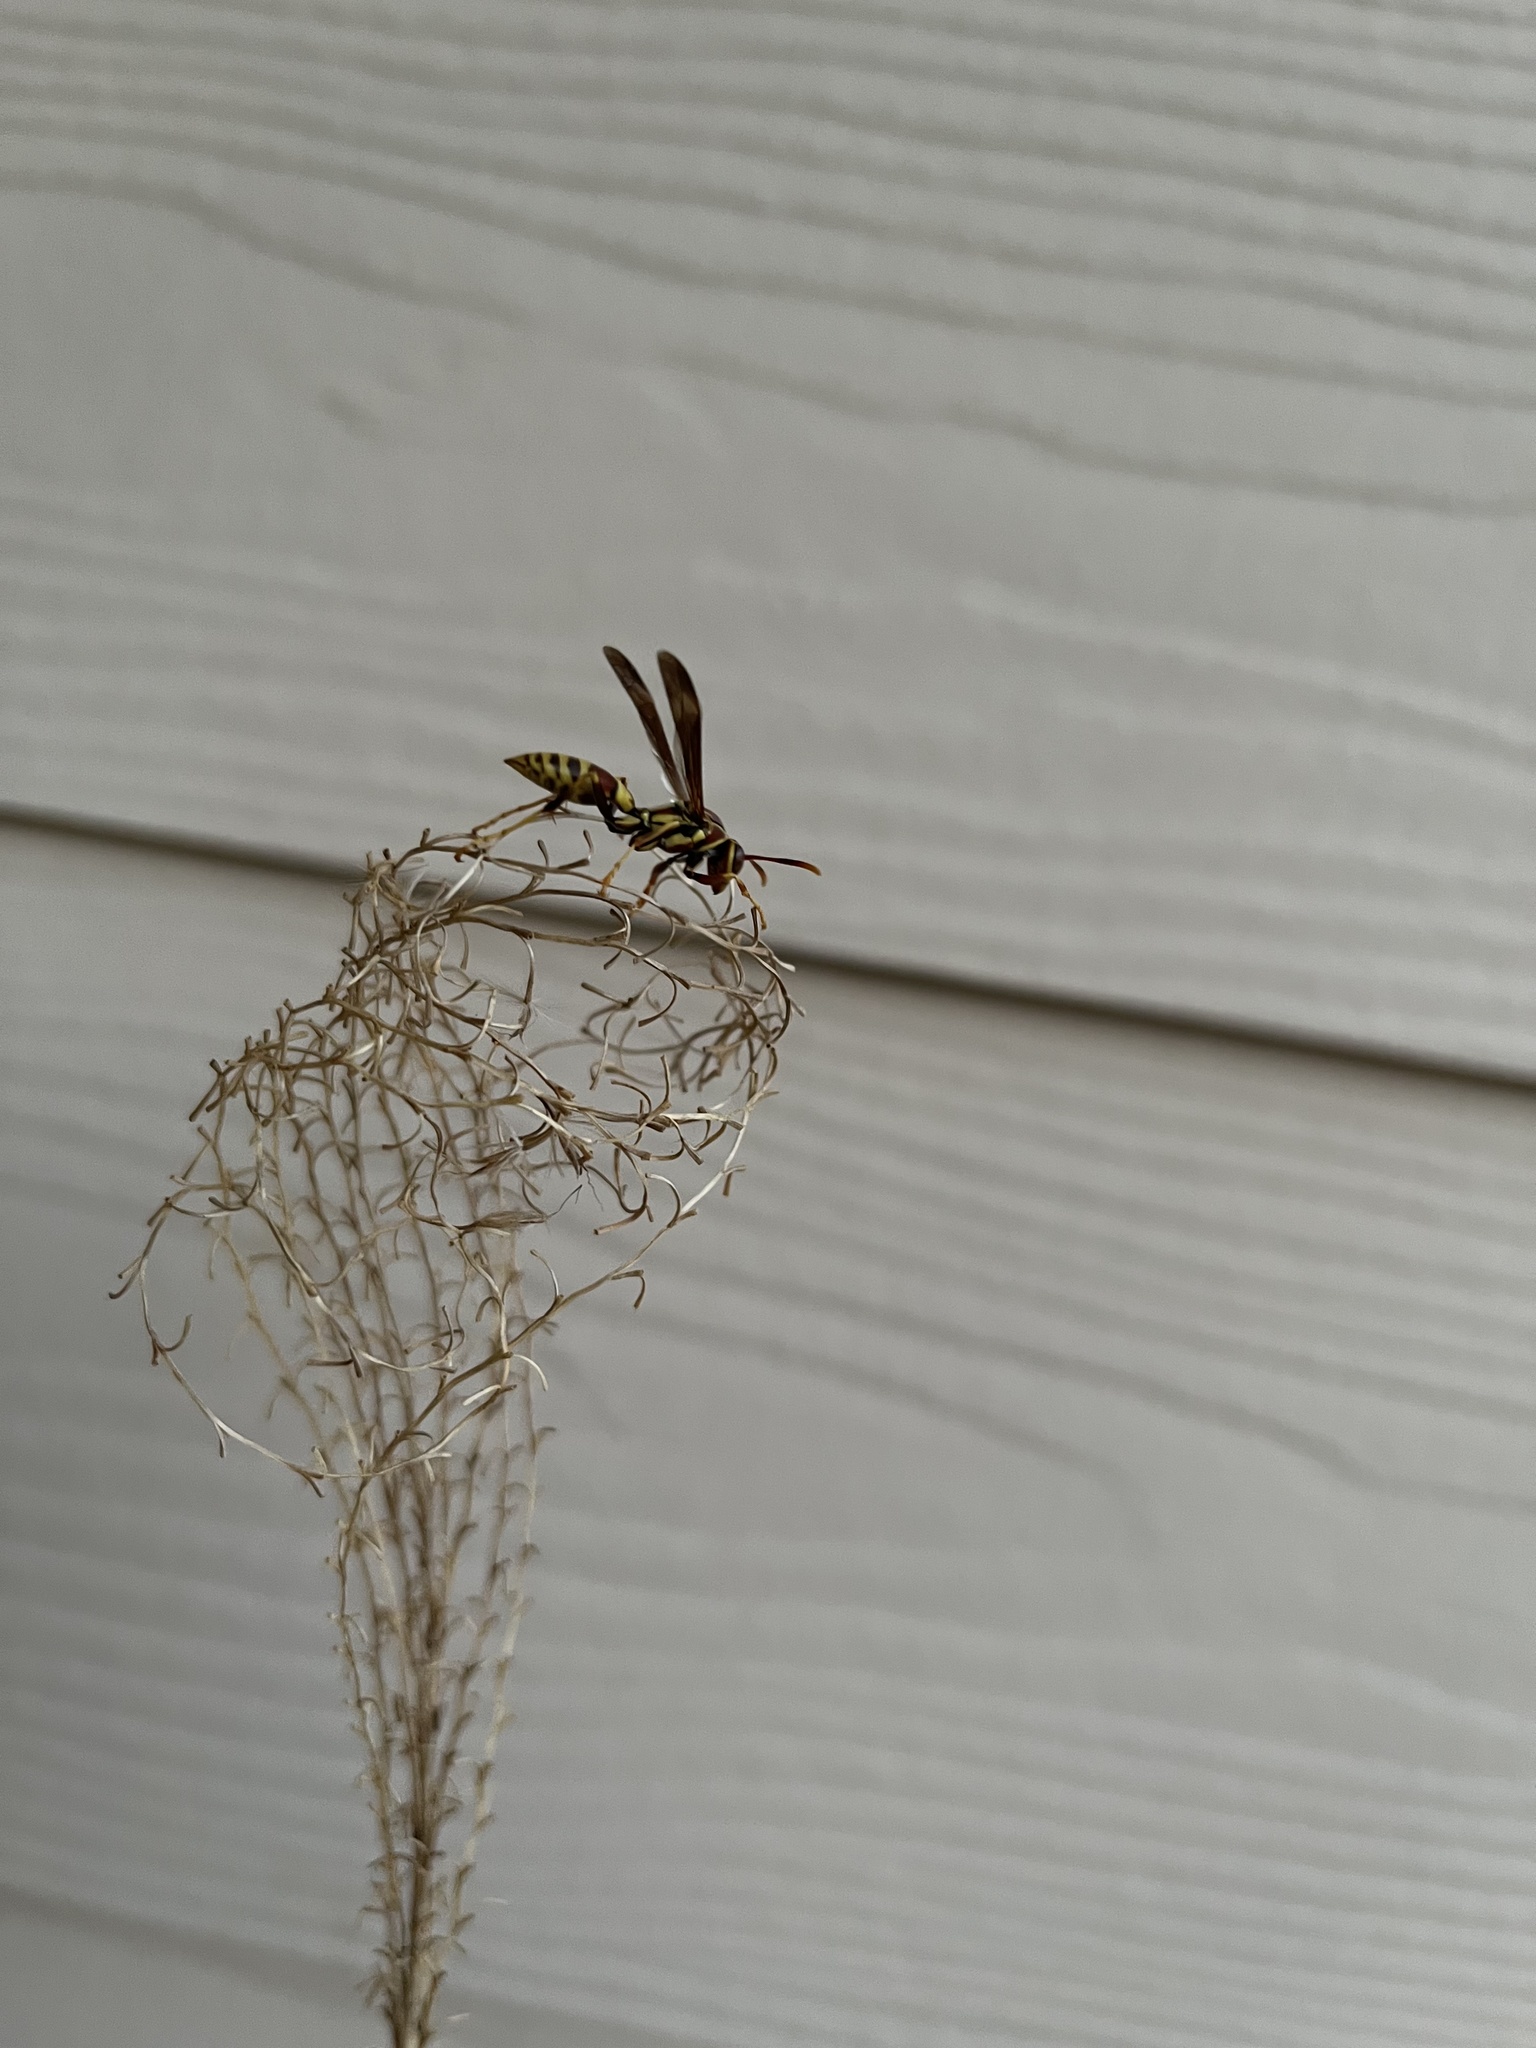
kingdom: Animalia
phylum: Arthropoda
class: Insecta
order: Hymenoptera
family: Eumenidae
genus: Polistes
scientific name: Polistes exclamans
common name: Paper wasp
